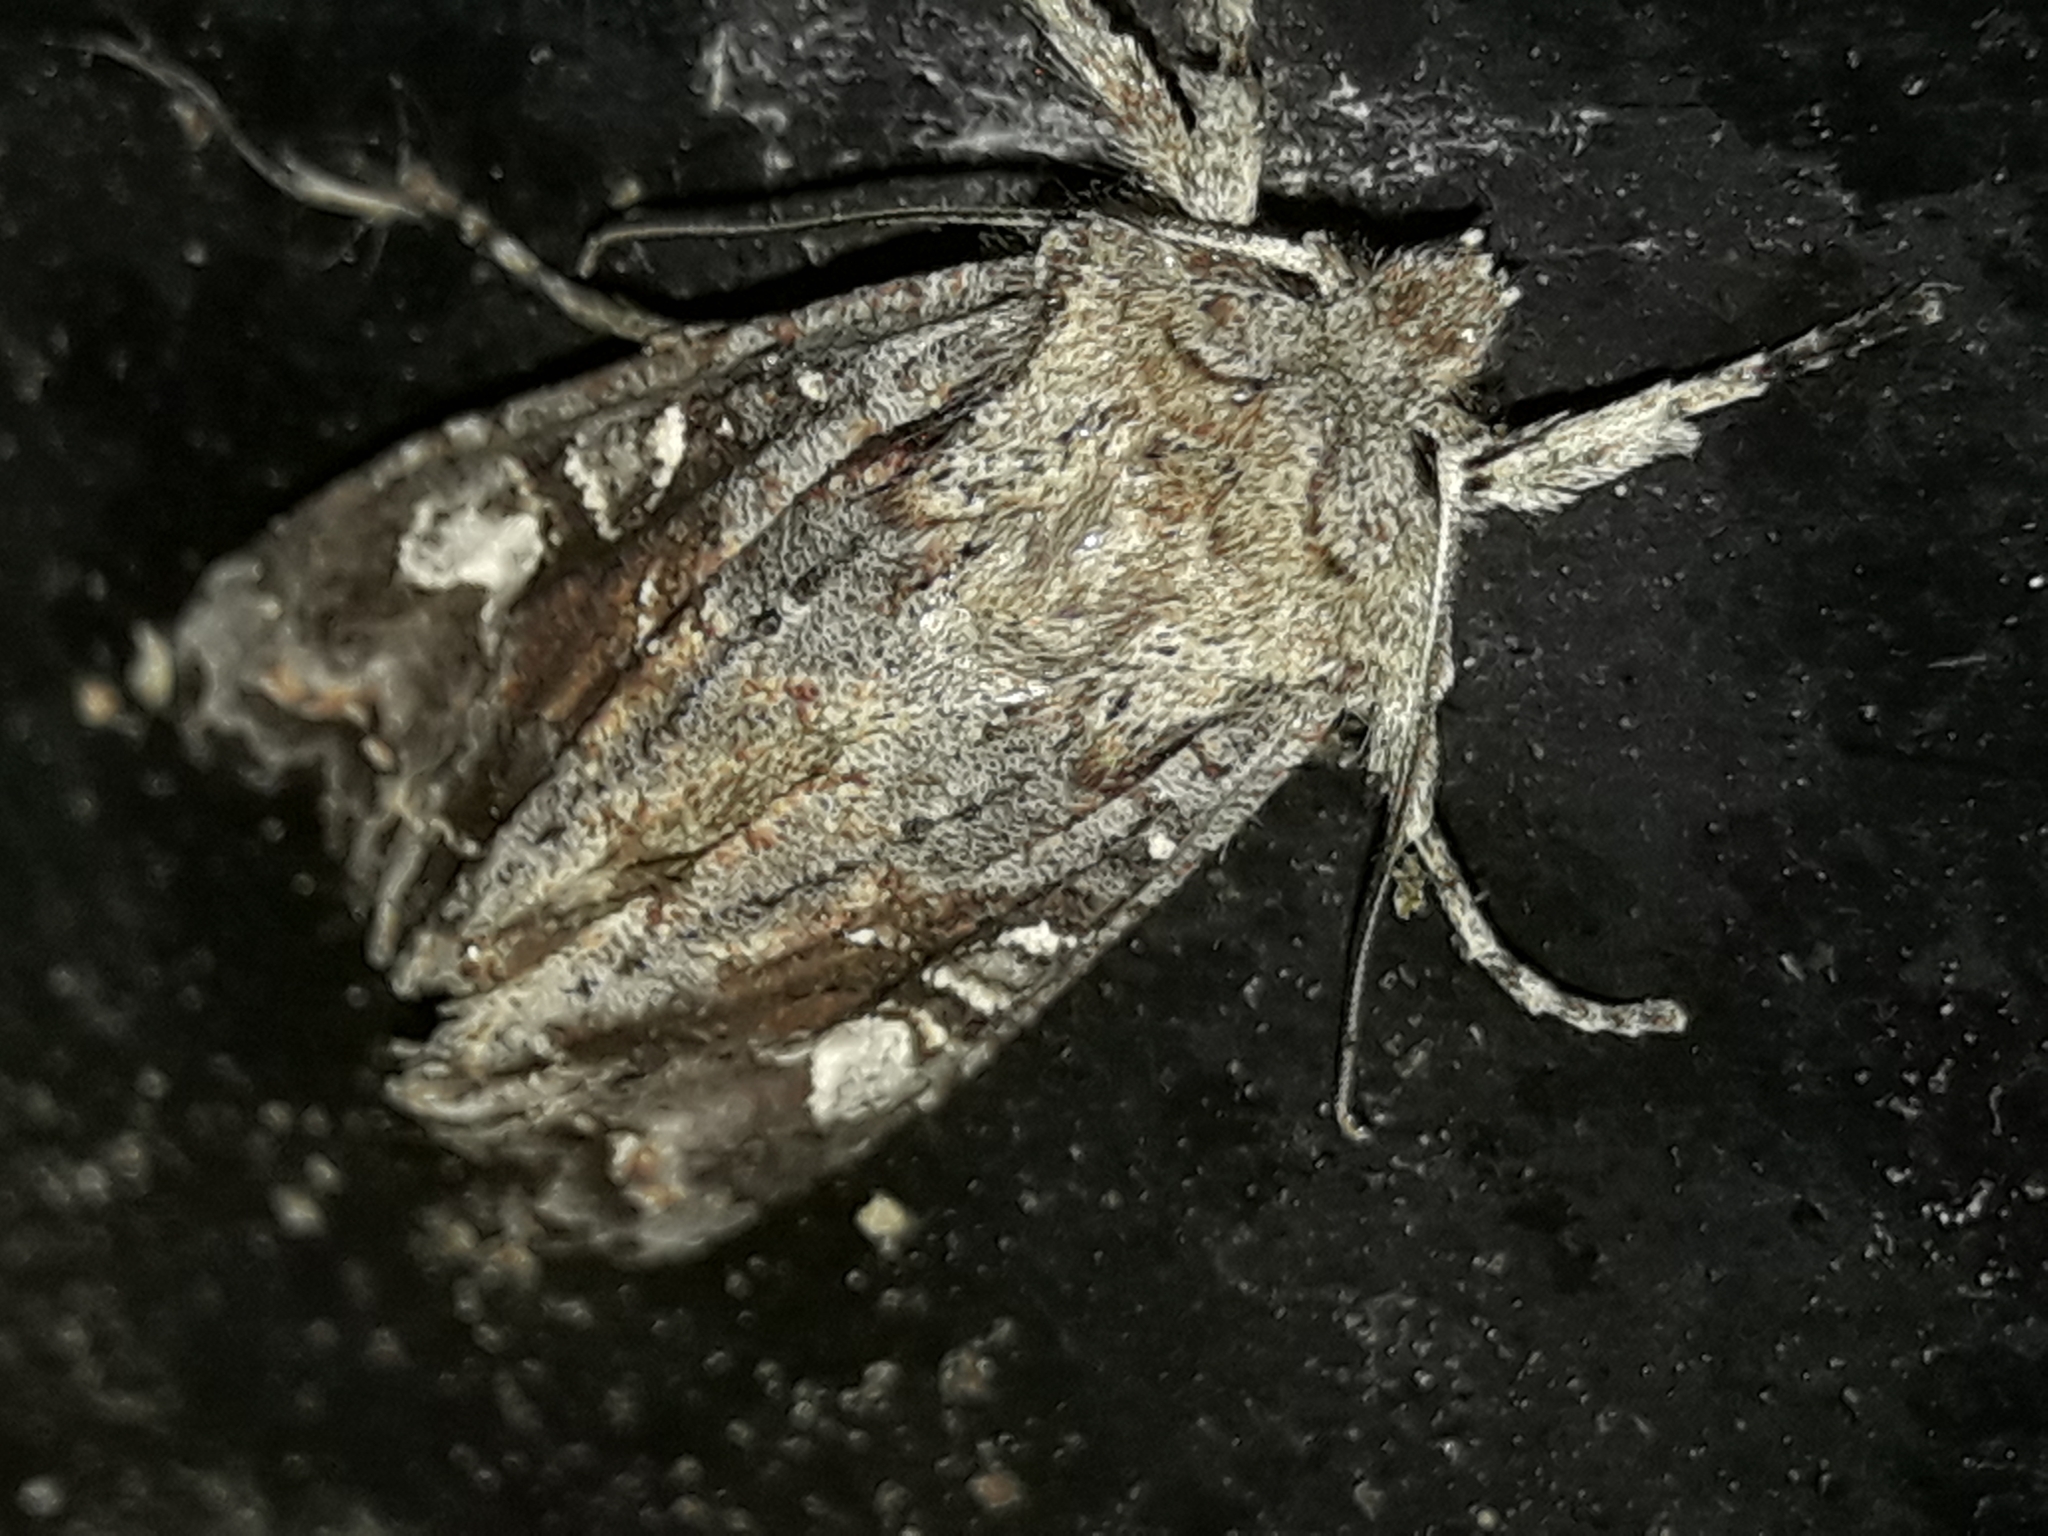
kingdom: Animalia
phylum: Arthropoda
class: Insecta
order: Lepidoptera
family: Noctuidae
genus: Ichneutica
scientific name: Ichneutica mutans
